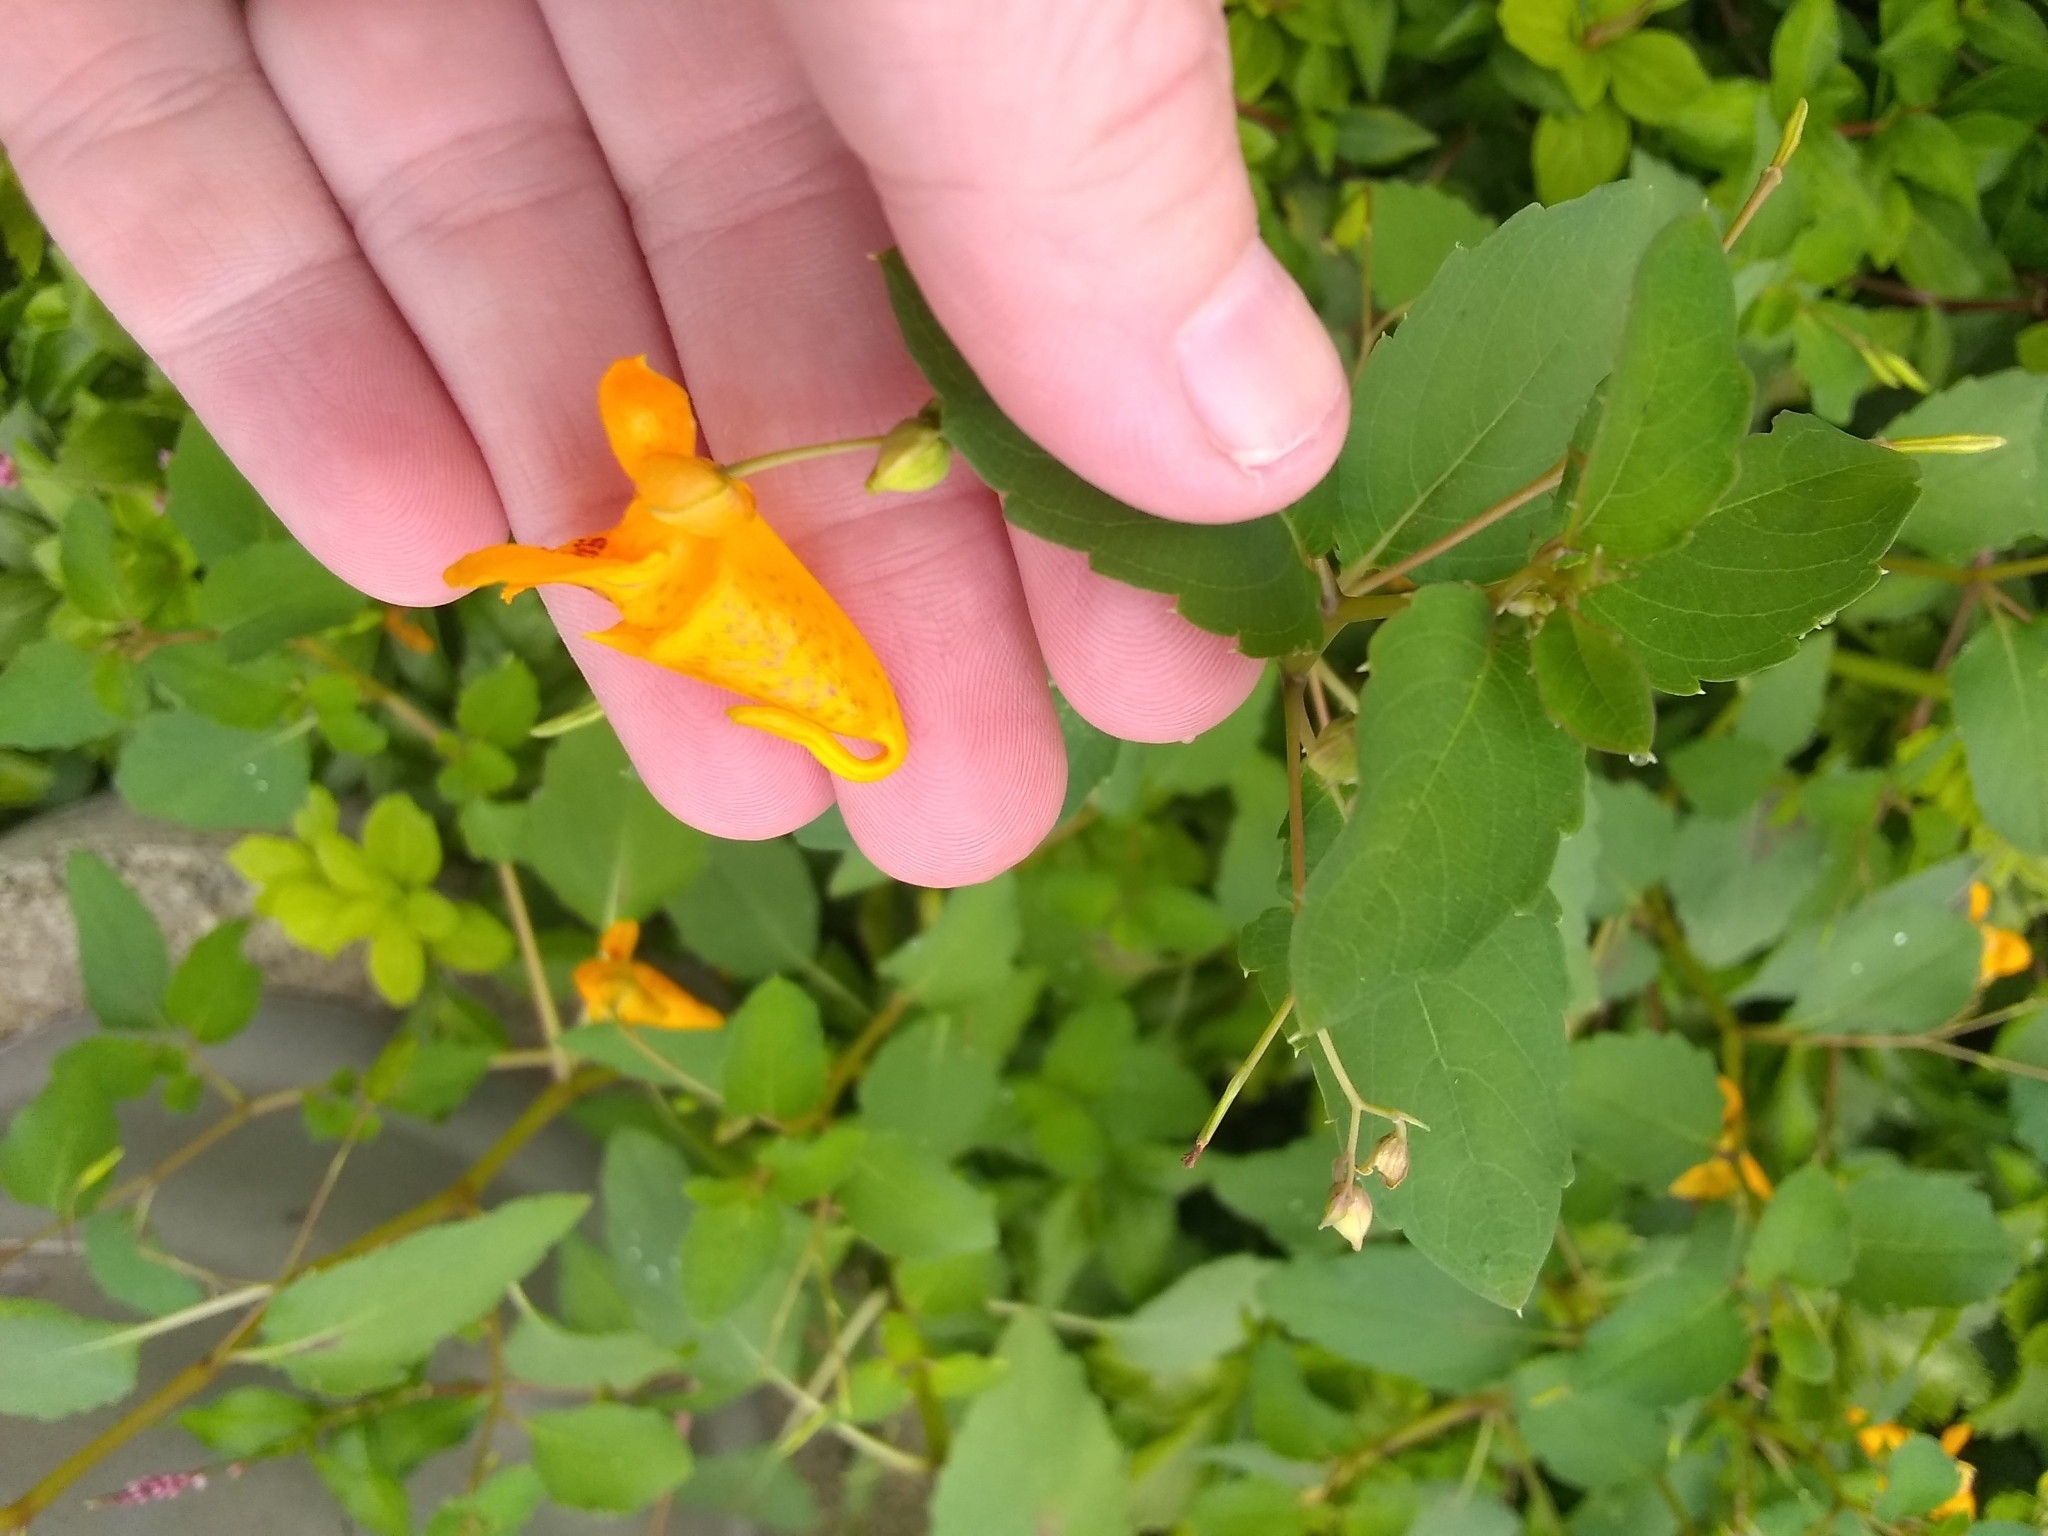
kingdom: Plantae
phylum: Tracheophyta
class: Magnoliopsida
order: Ericales
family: Balsaminaceae
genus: Impatiens
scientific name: Impatiens capensis
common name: Orange balsam
